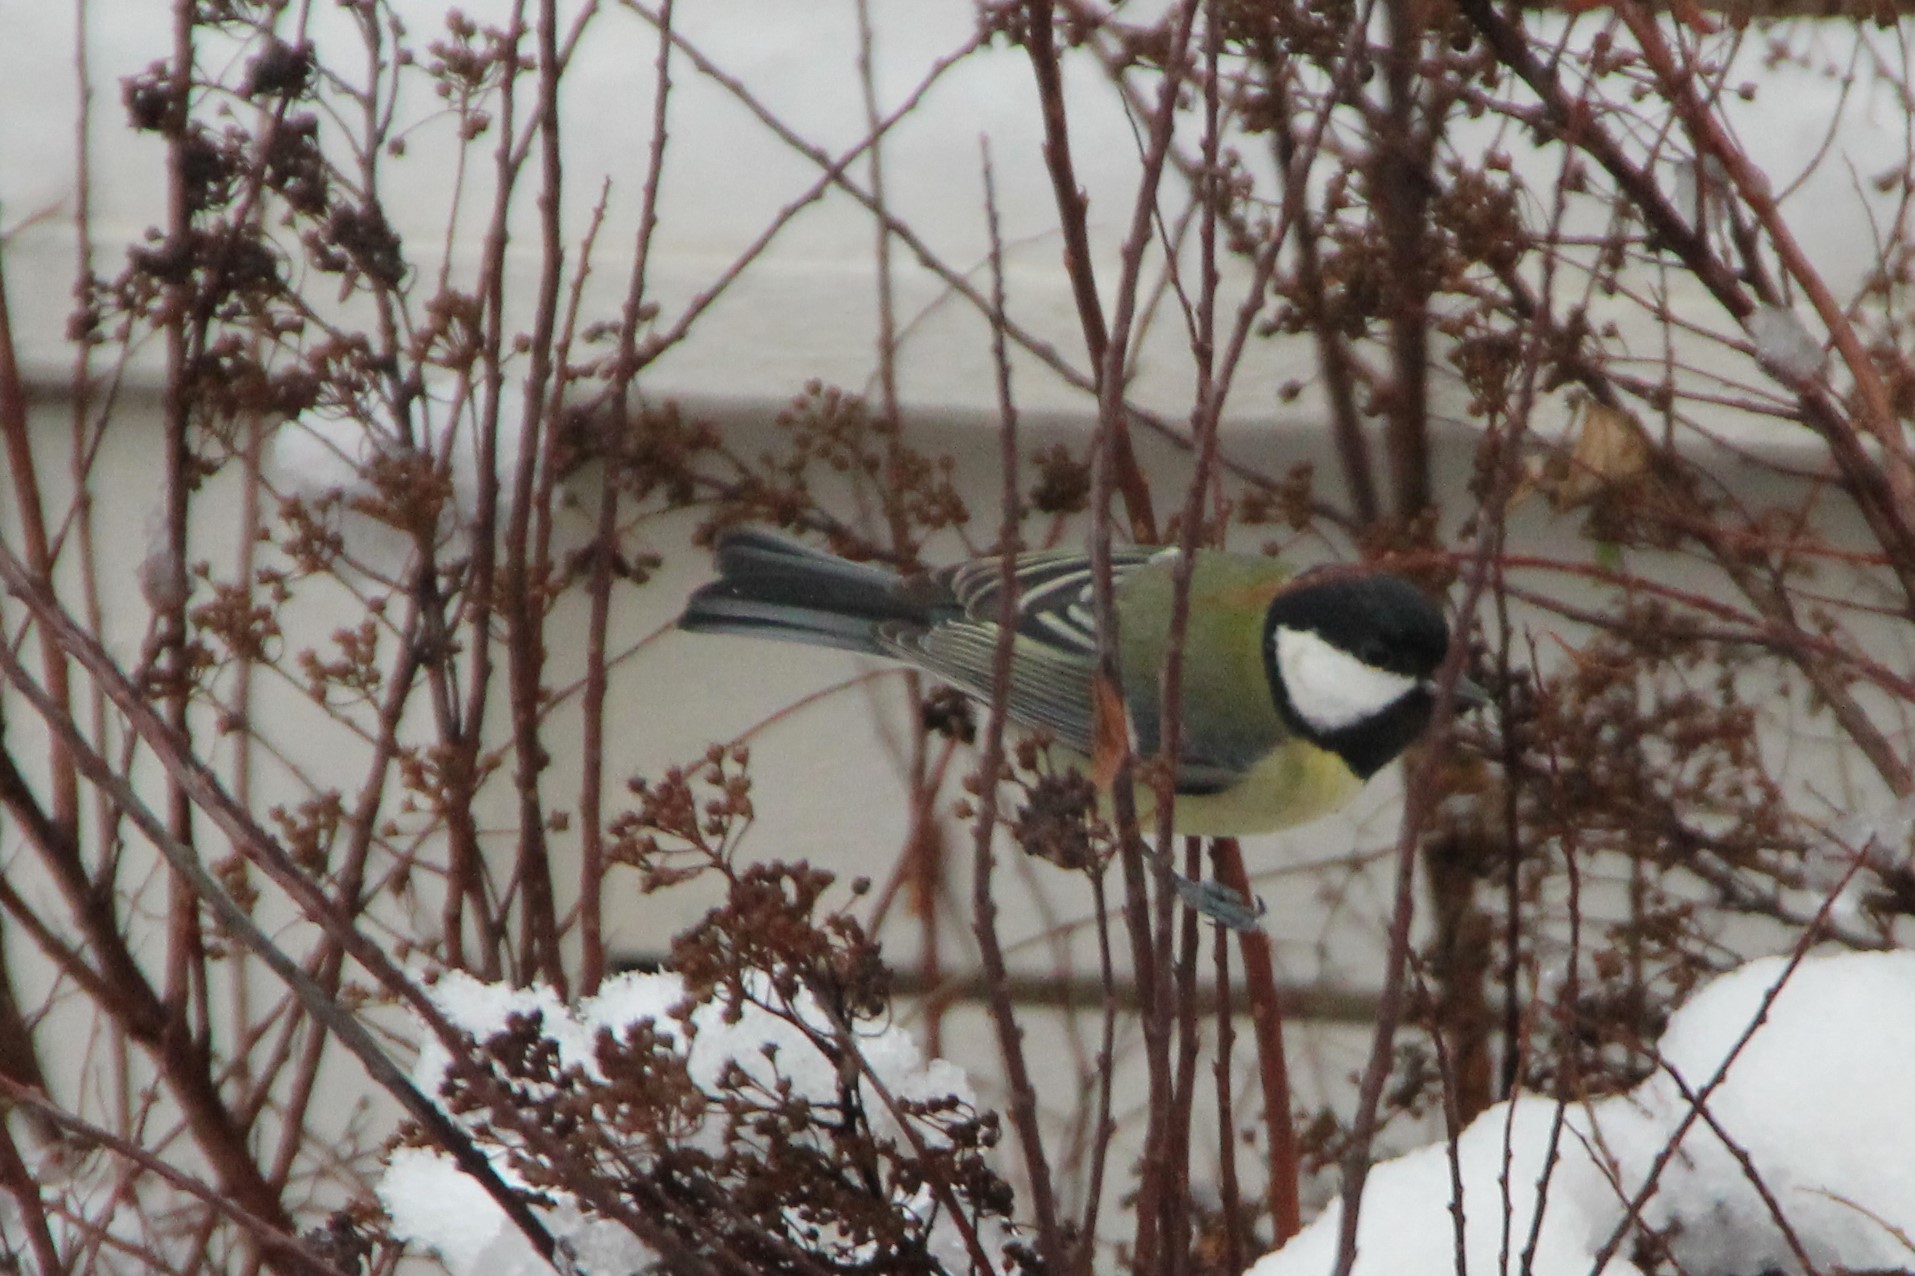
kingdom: Animalia
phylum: Chordata
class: Aves
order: Passeriformes
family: Paridae
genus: Parus
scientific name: Parus major
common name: Great tit
